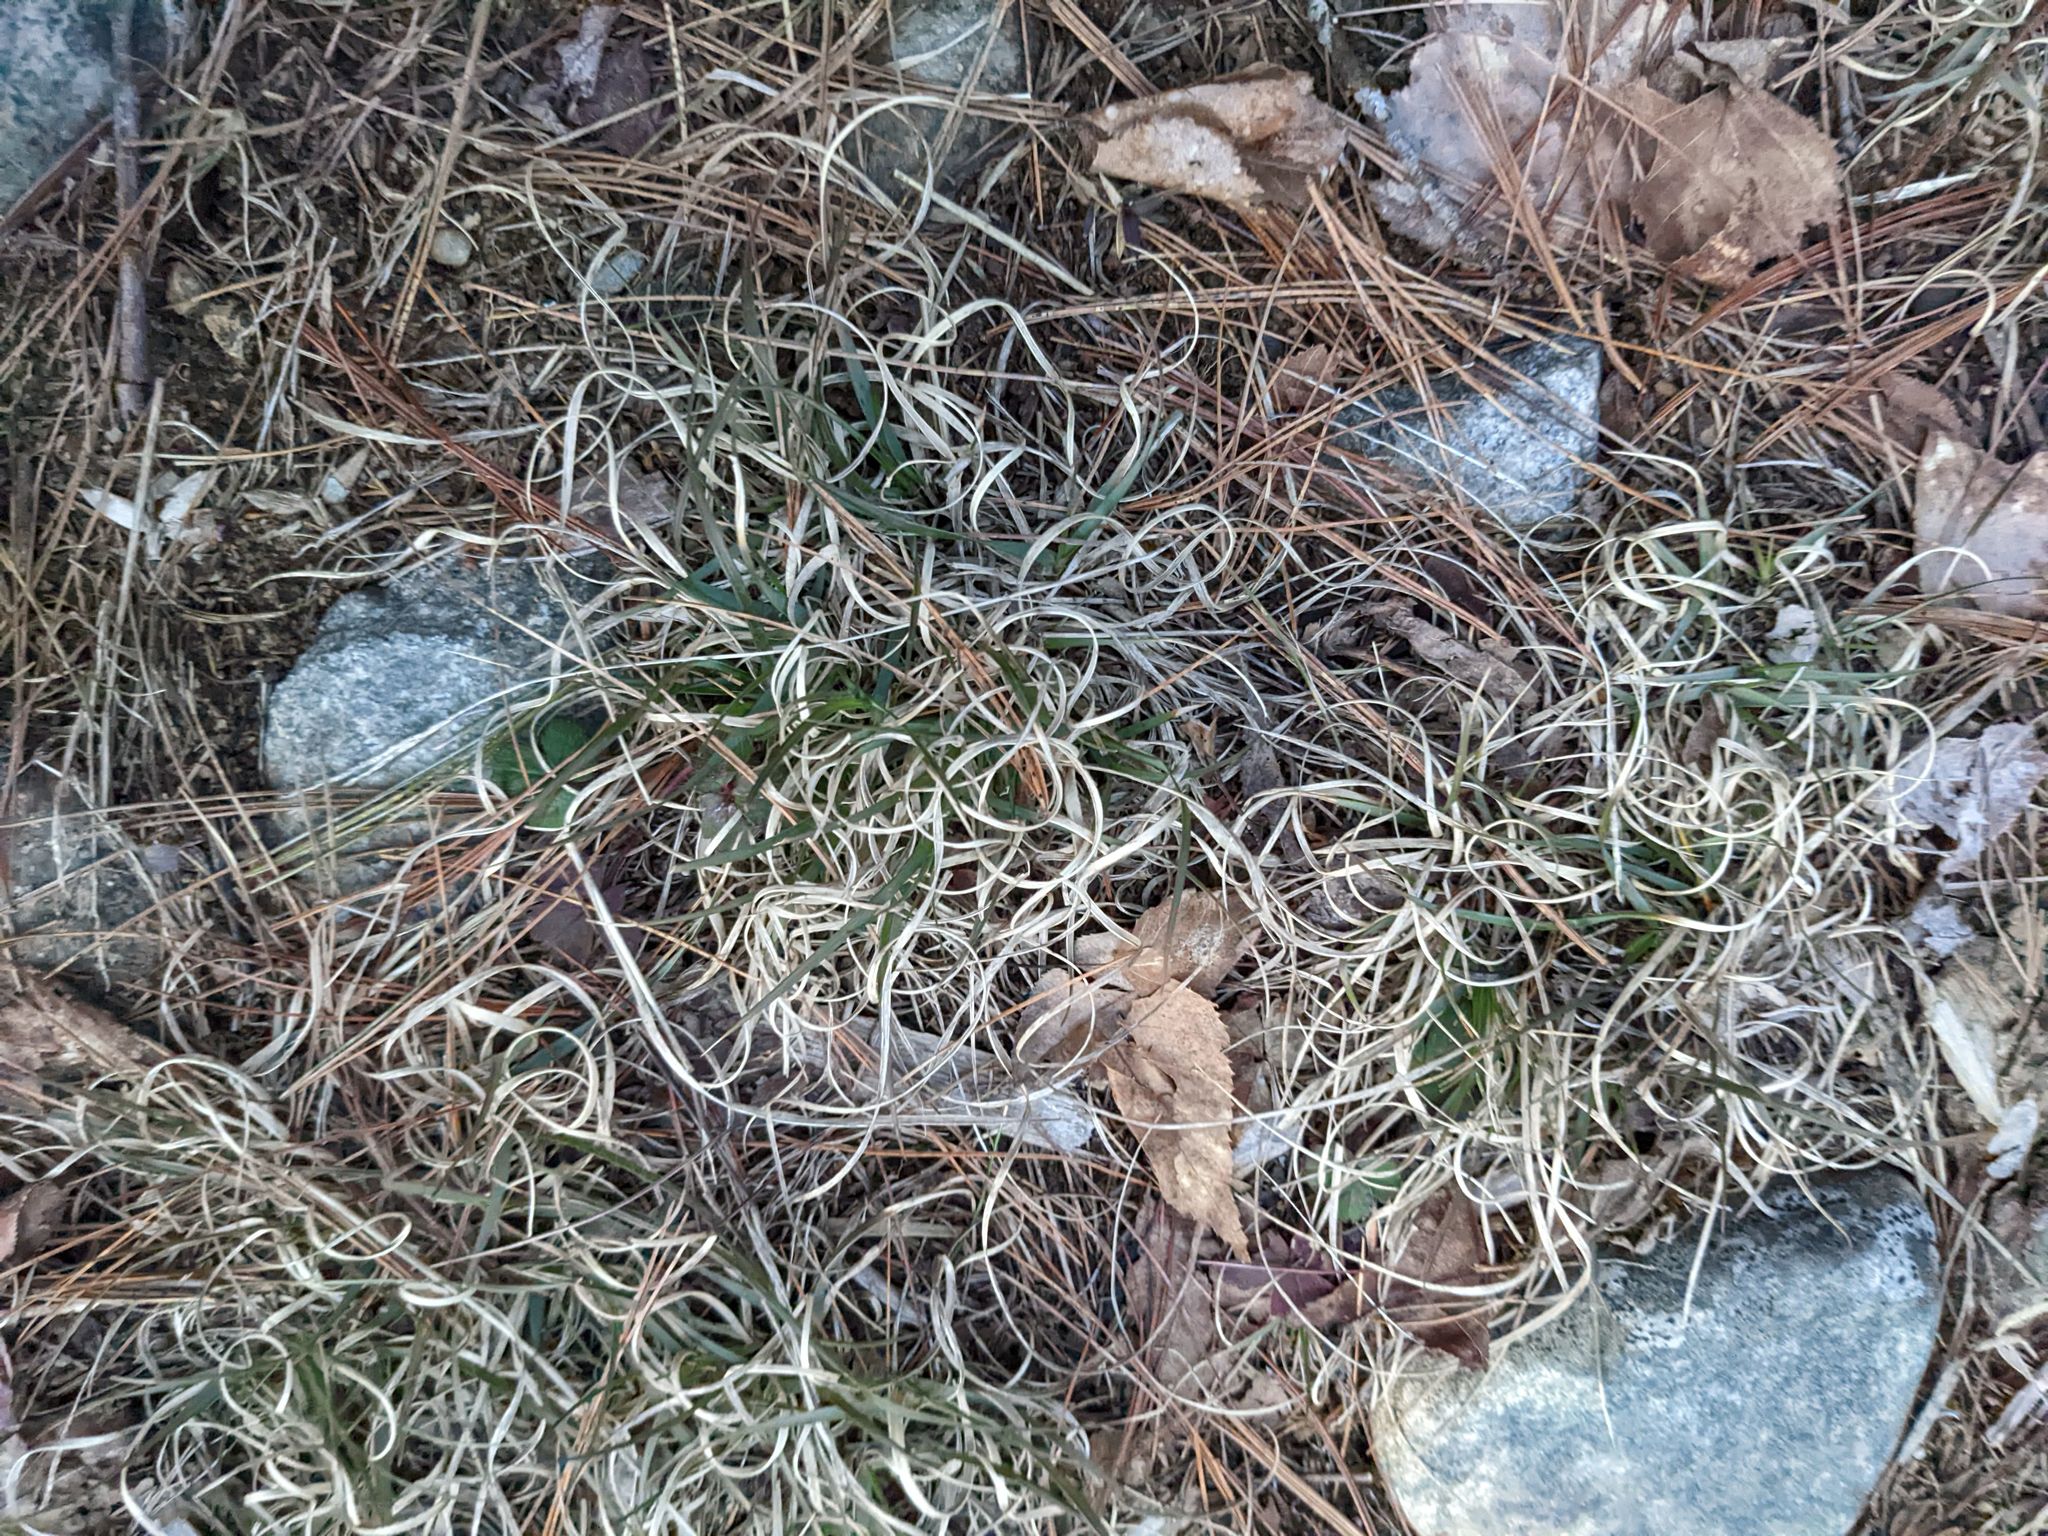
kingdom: Plantae
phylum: Tracheophyta
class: Liliopsida
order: Poales
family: Poaceae
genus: Danthonia
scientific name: Danthonia spicata
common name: Common wild oatgrass
